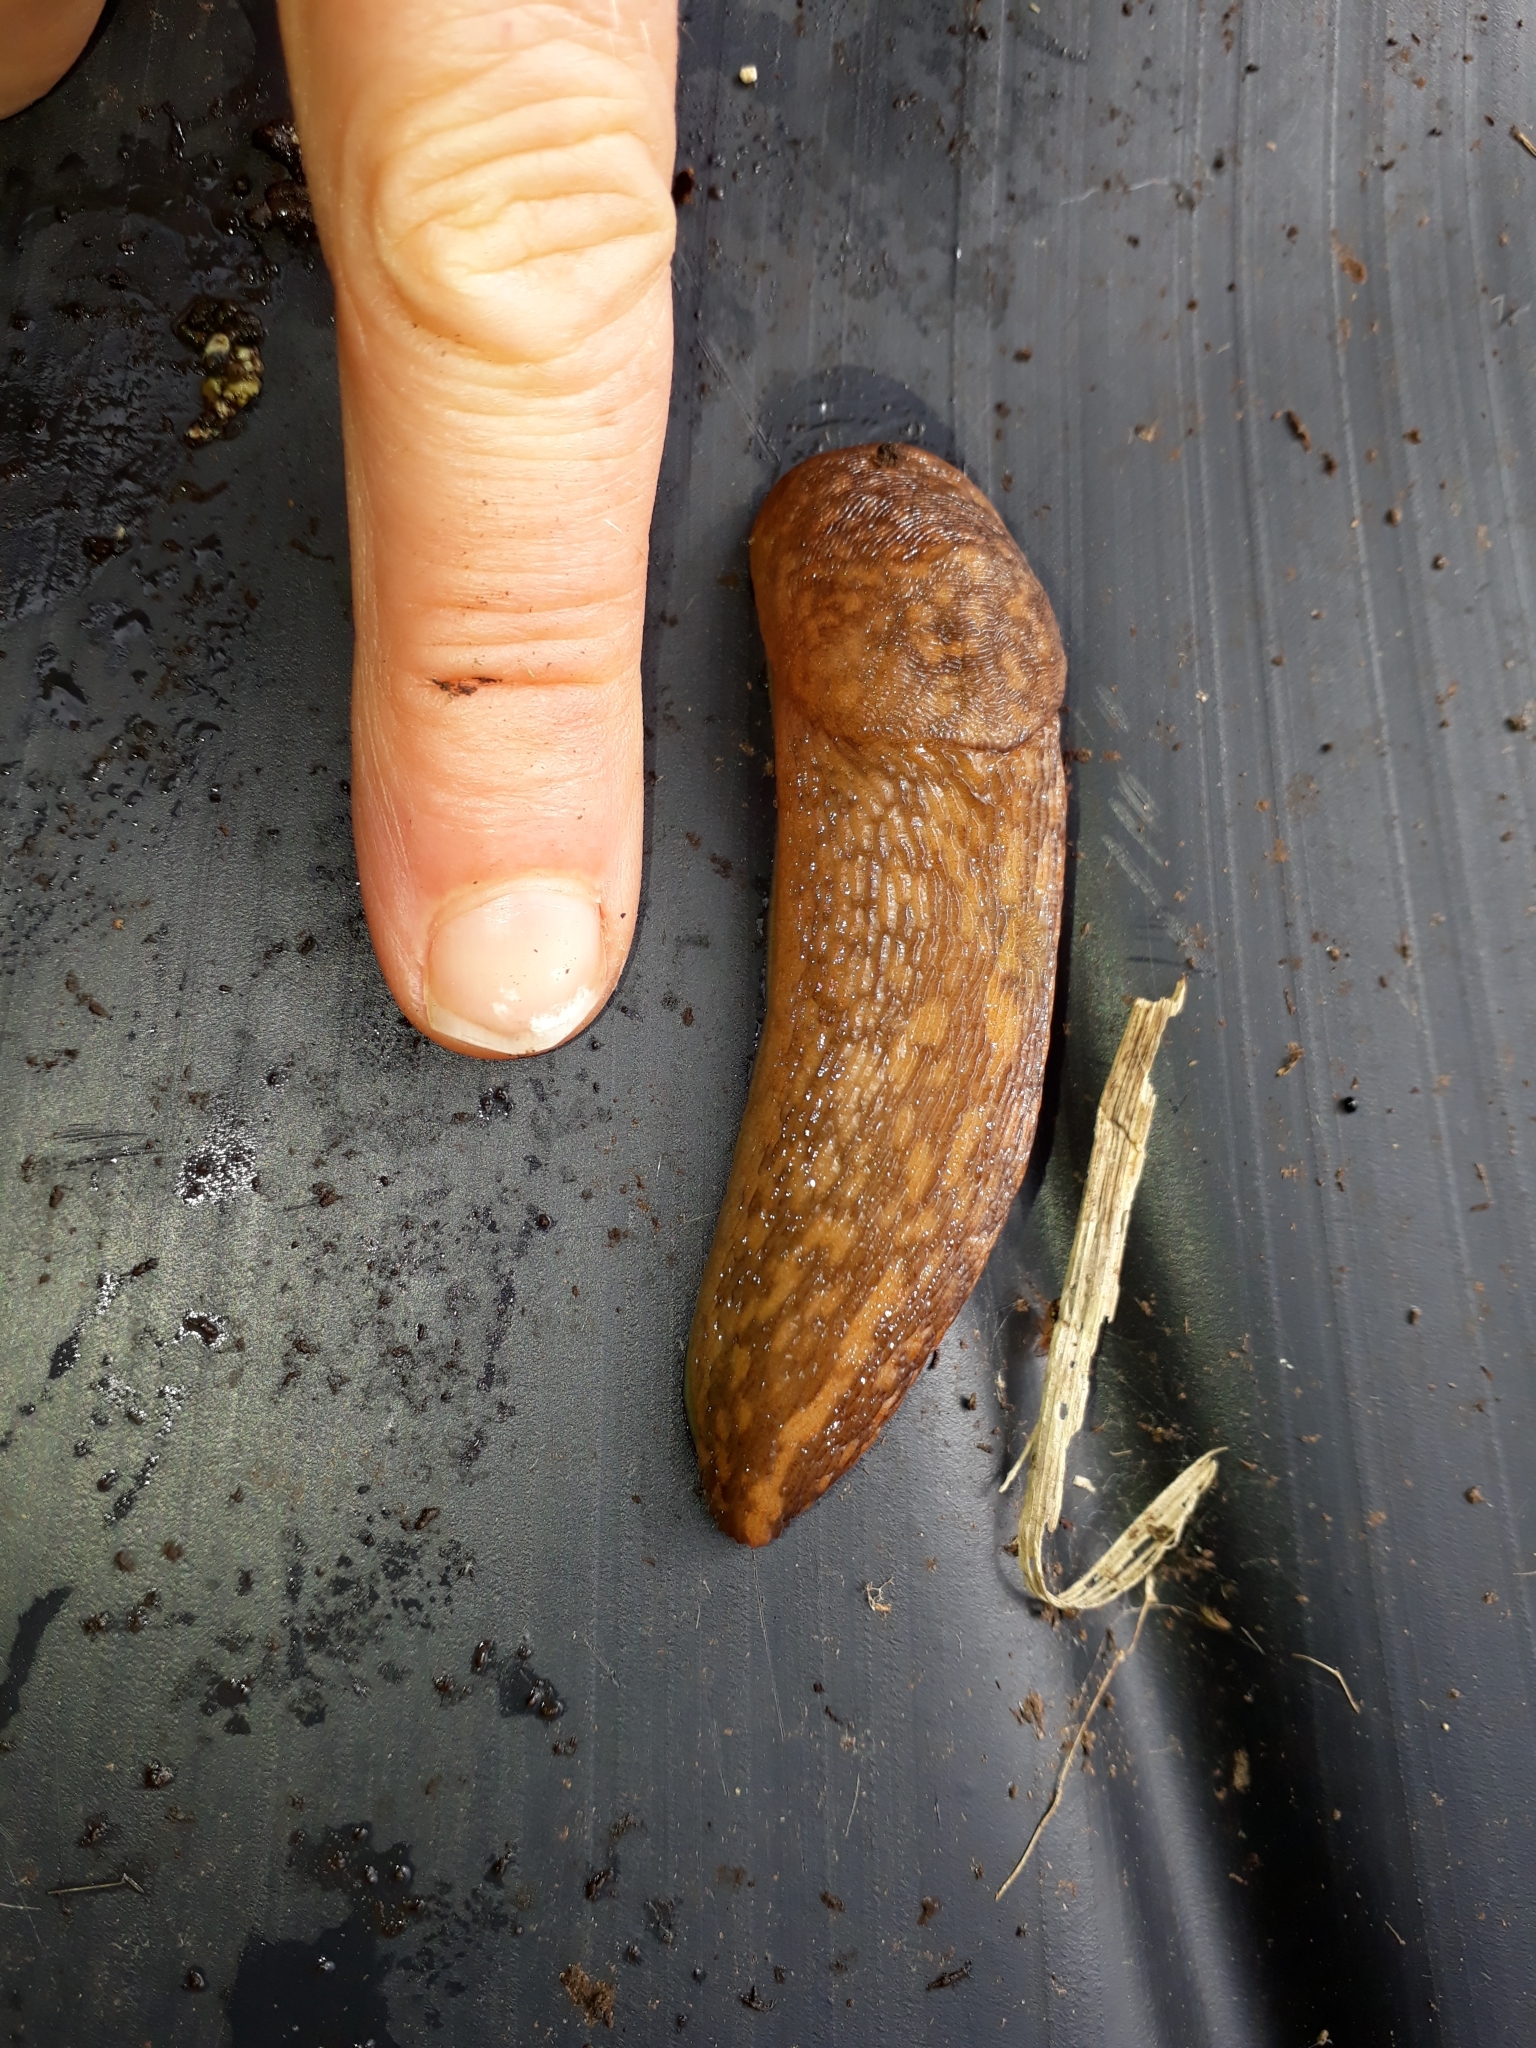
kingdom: Animalia
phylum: Mollusca
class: Gastropoda
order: Stylommatophora
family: Limacidae
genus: Limacus
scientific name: Limacus flavus
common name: Yellow gardenslug
